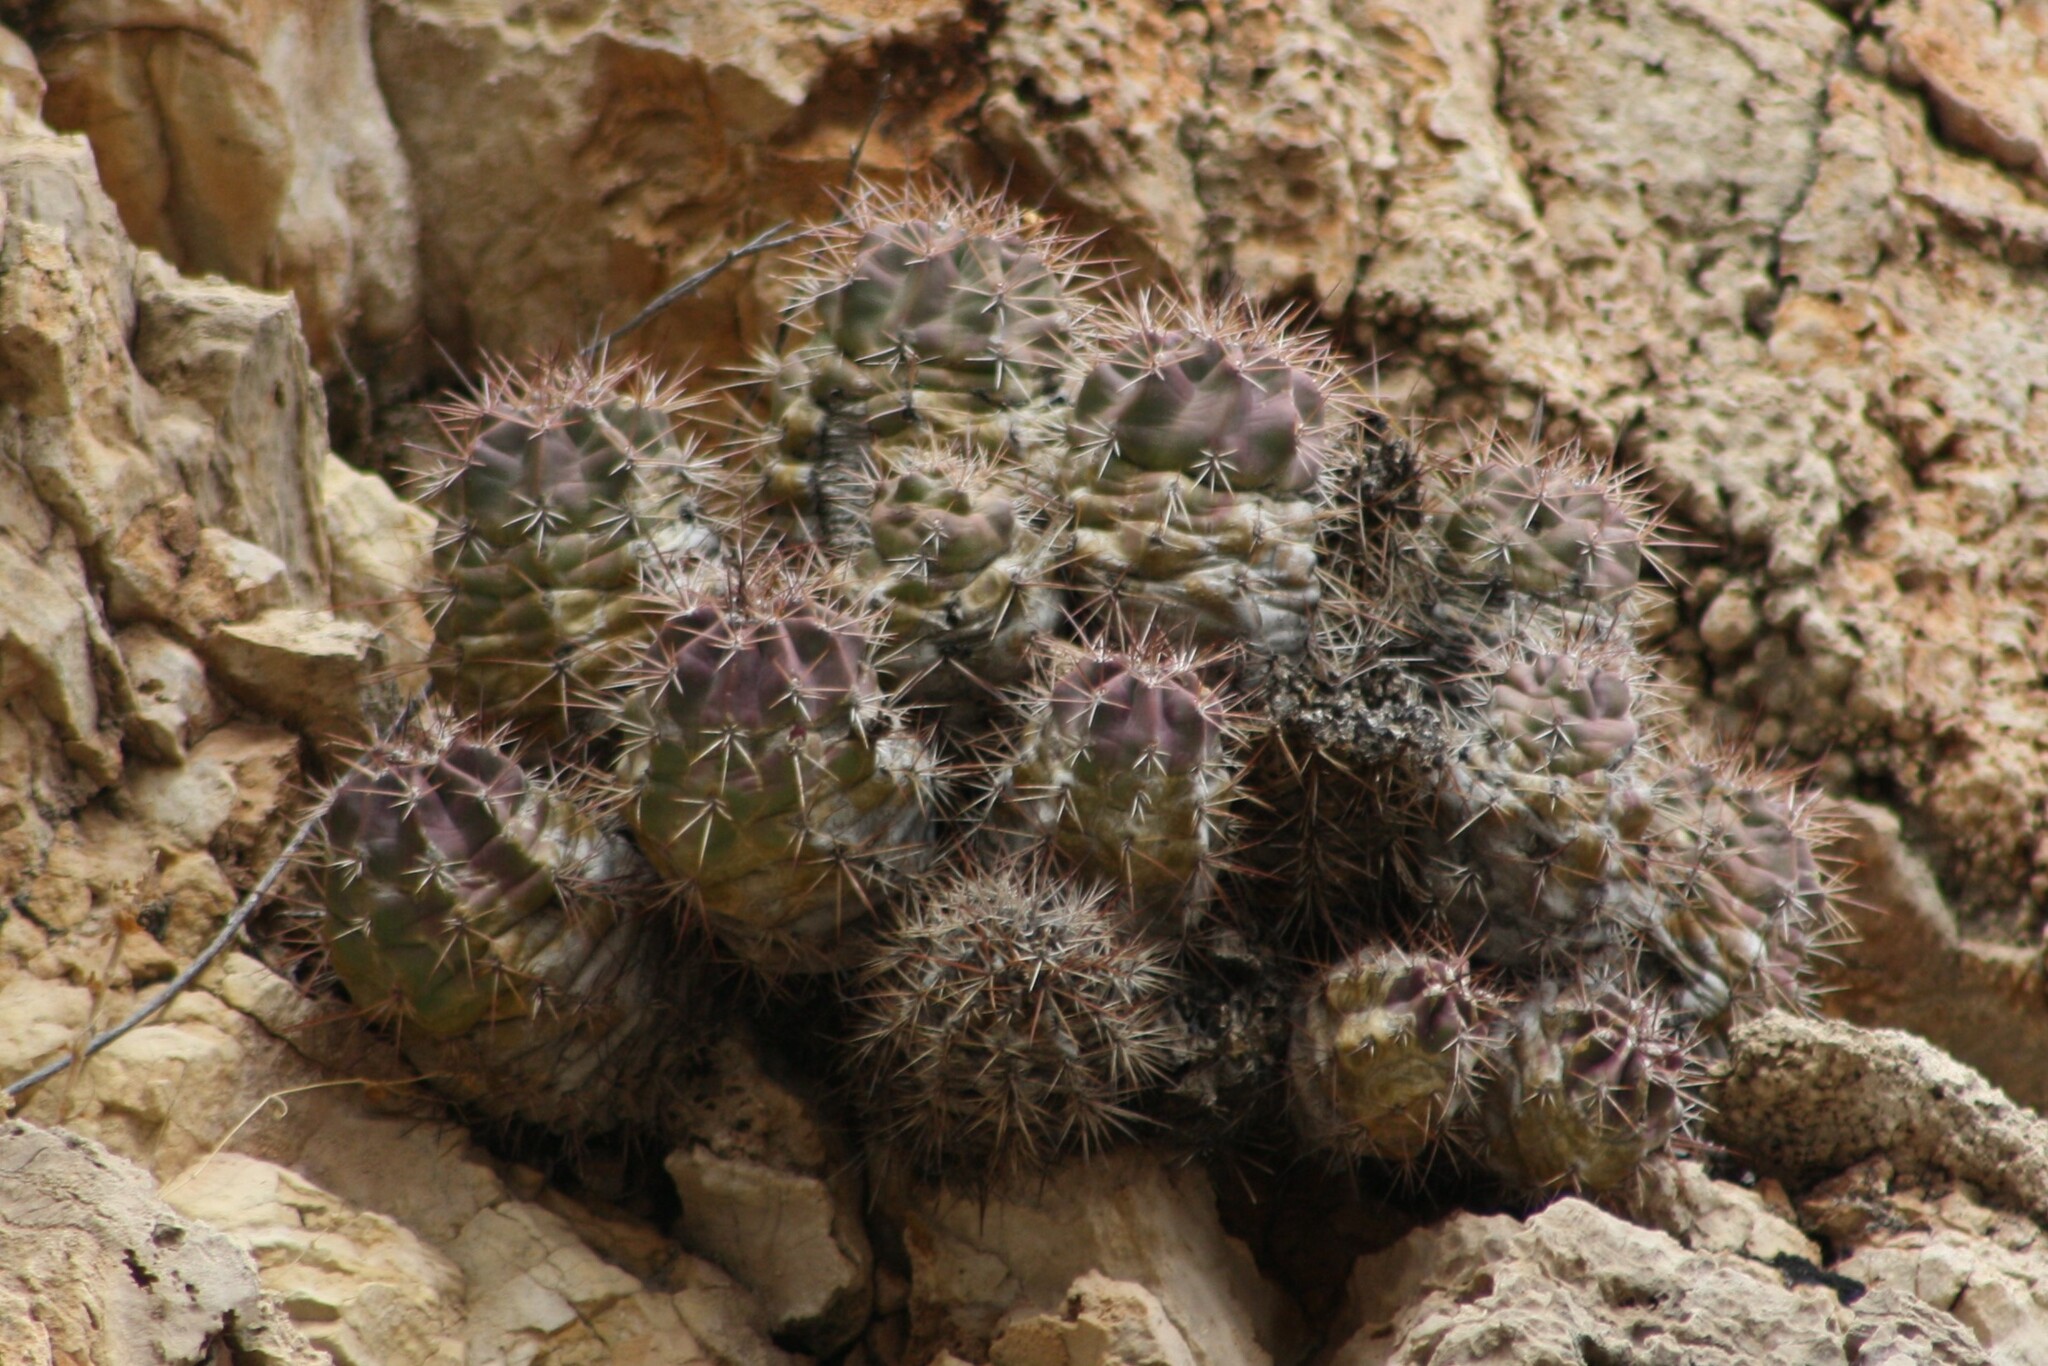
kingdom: Plantae
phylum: Tracheophyta
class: Magnoliopsida
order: Caryophyllales
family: Cactaceae
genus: Echinocereus
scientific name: Echinocereus coccineus
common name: Scarlet hedgehog cactus
